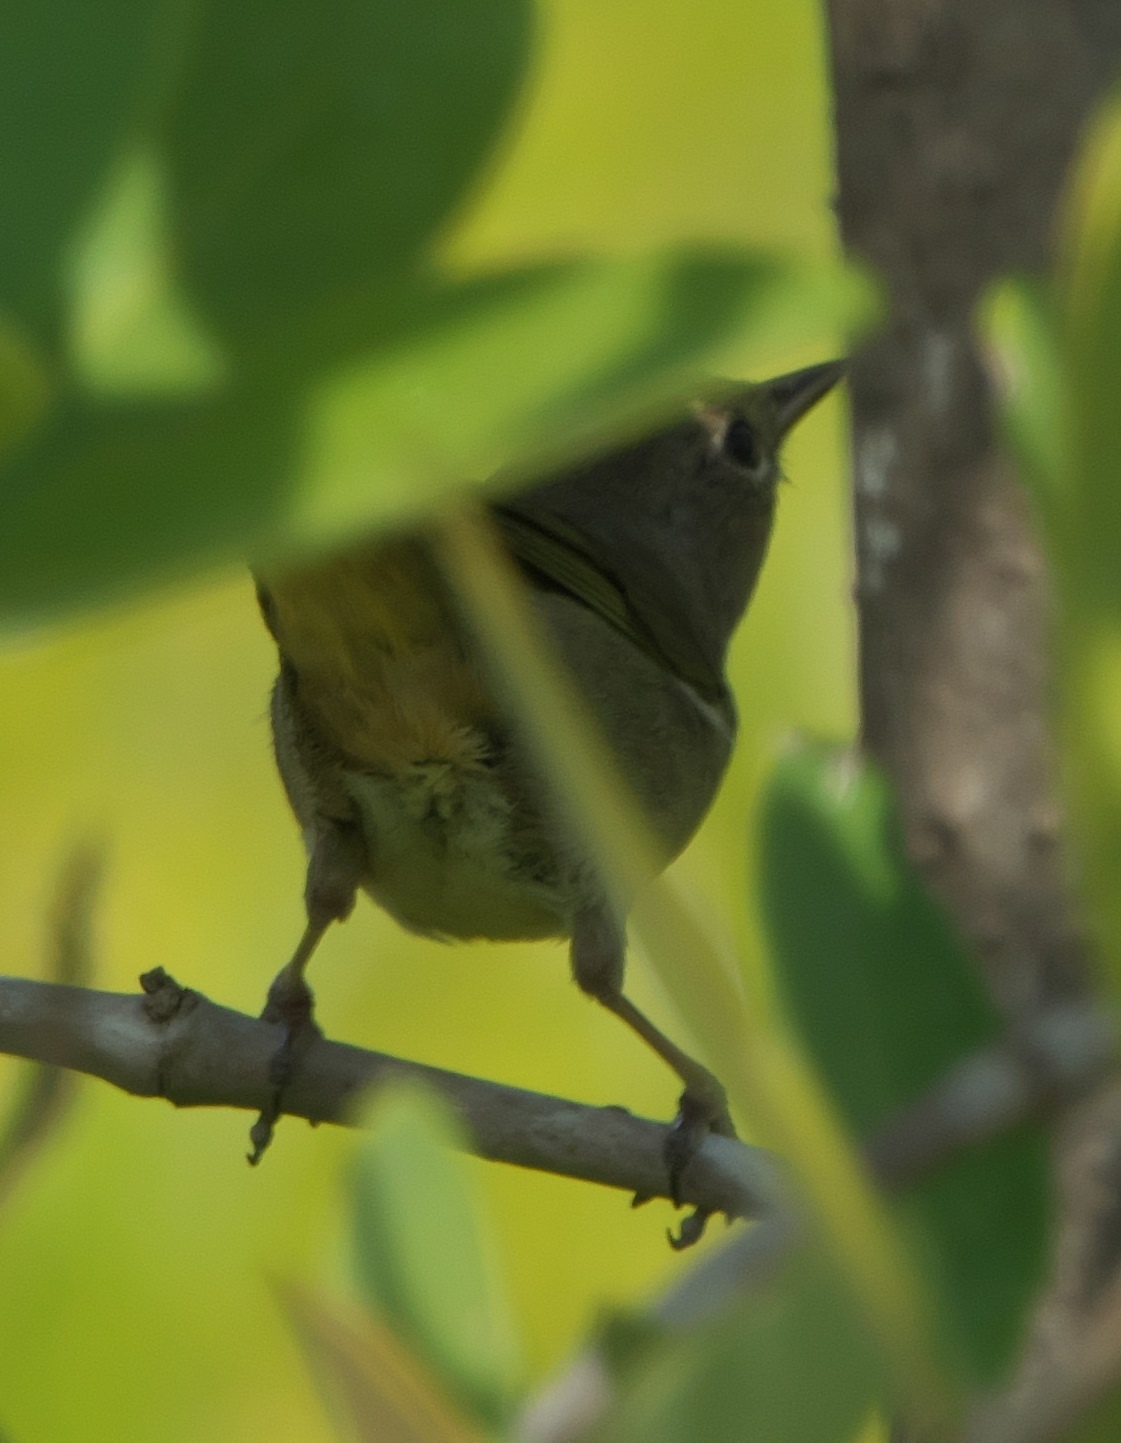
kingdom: Animalia
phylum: Chordata
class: Aves
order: Passeriformes
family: Parulidae
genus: Geothlypis
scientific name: Geothlypis trichas
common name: Common yellowthroat
